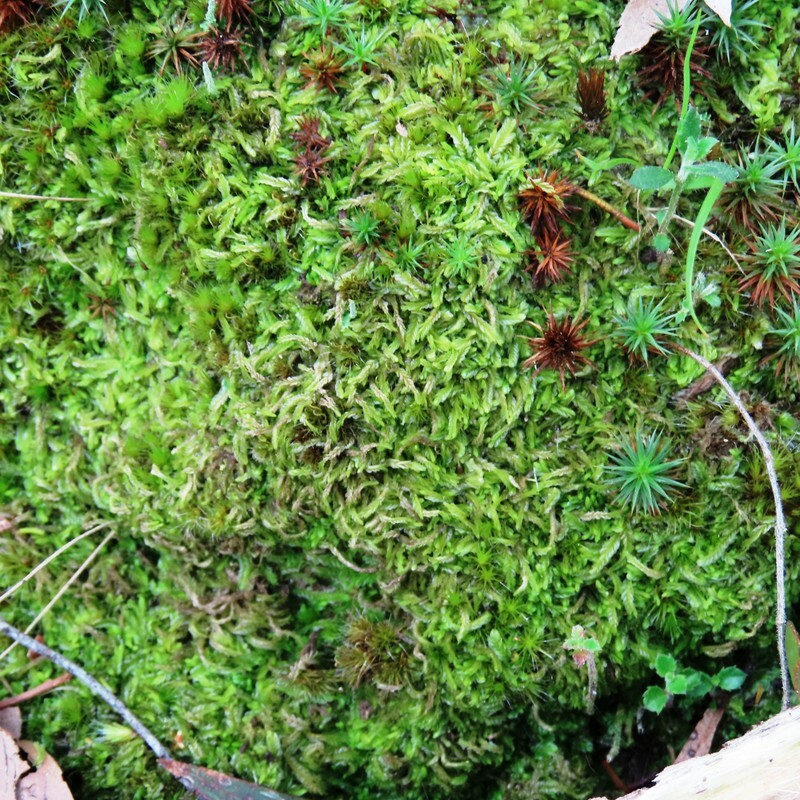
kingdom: Plantae
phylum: Bryophyta
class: Bryopsida
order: Hypnales
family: Hypnaceae
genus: Hypnum
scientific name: Hypnum cupressiforme
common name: Cypress-leaved plait-moss
